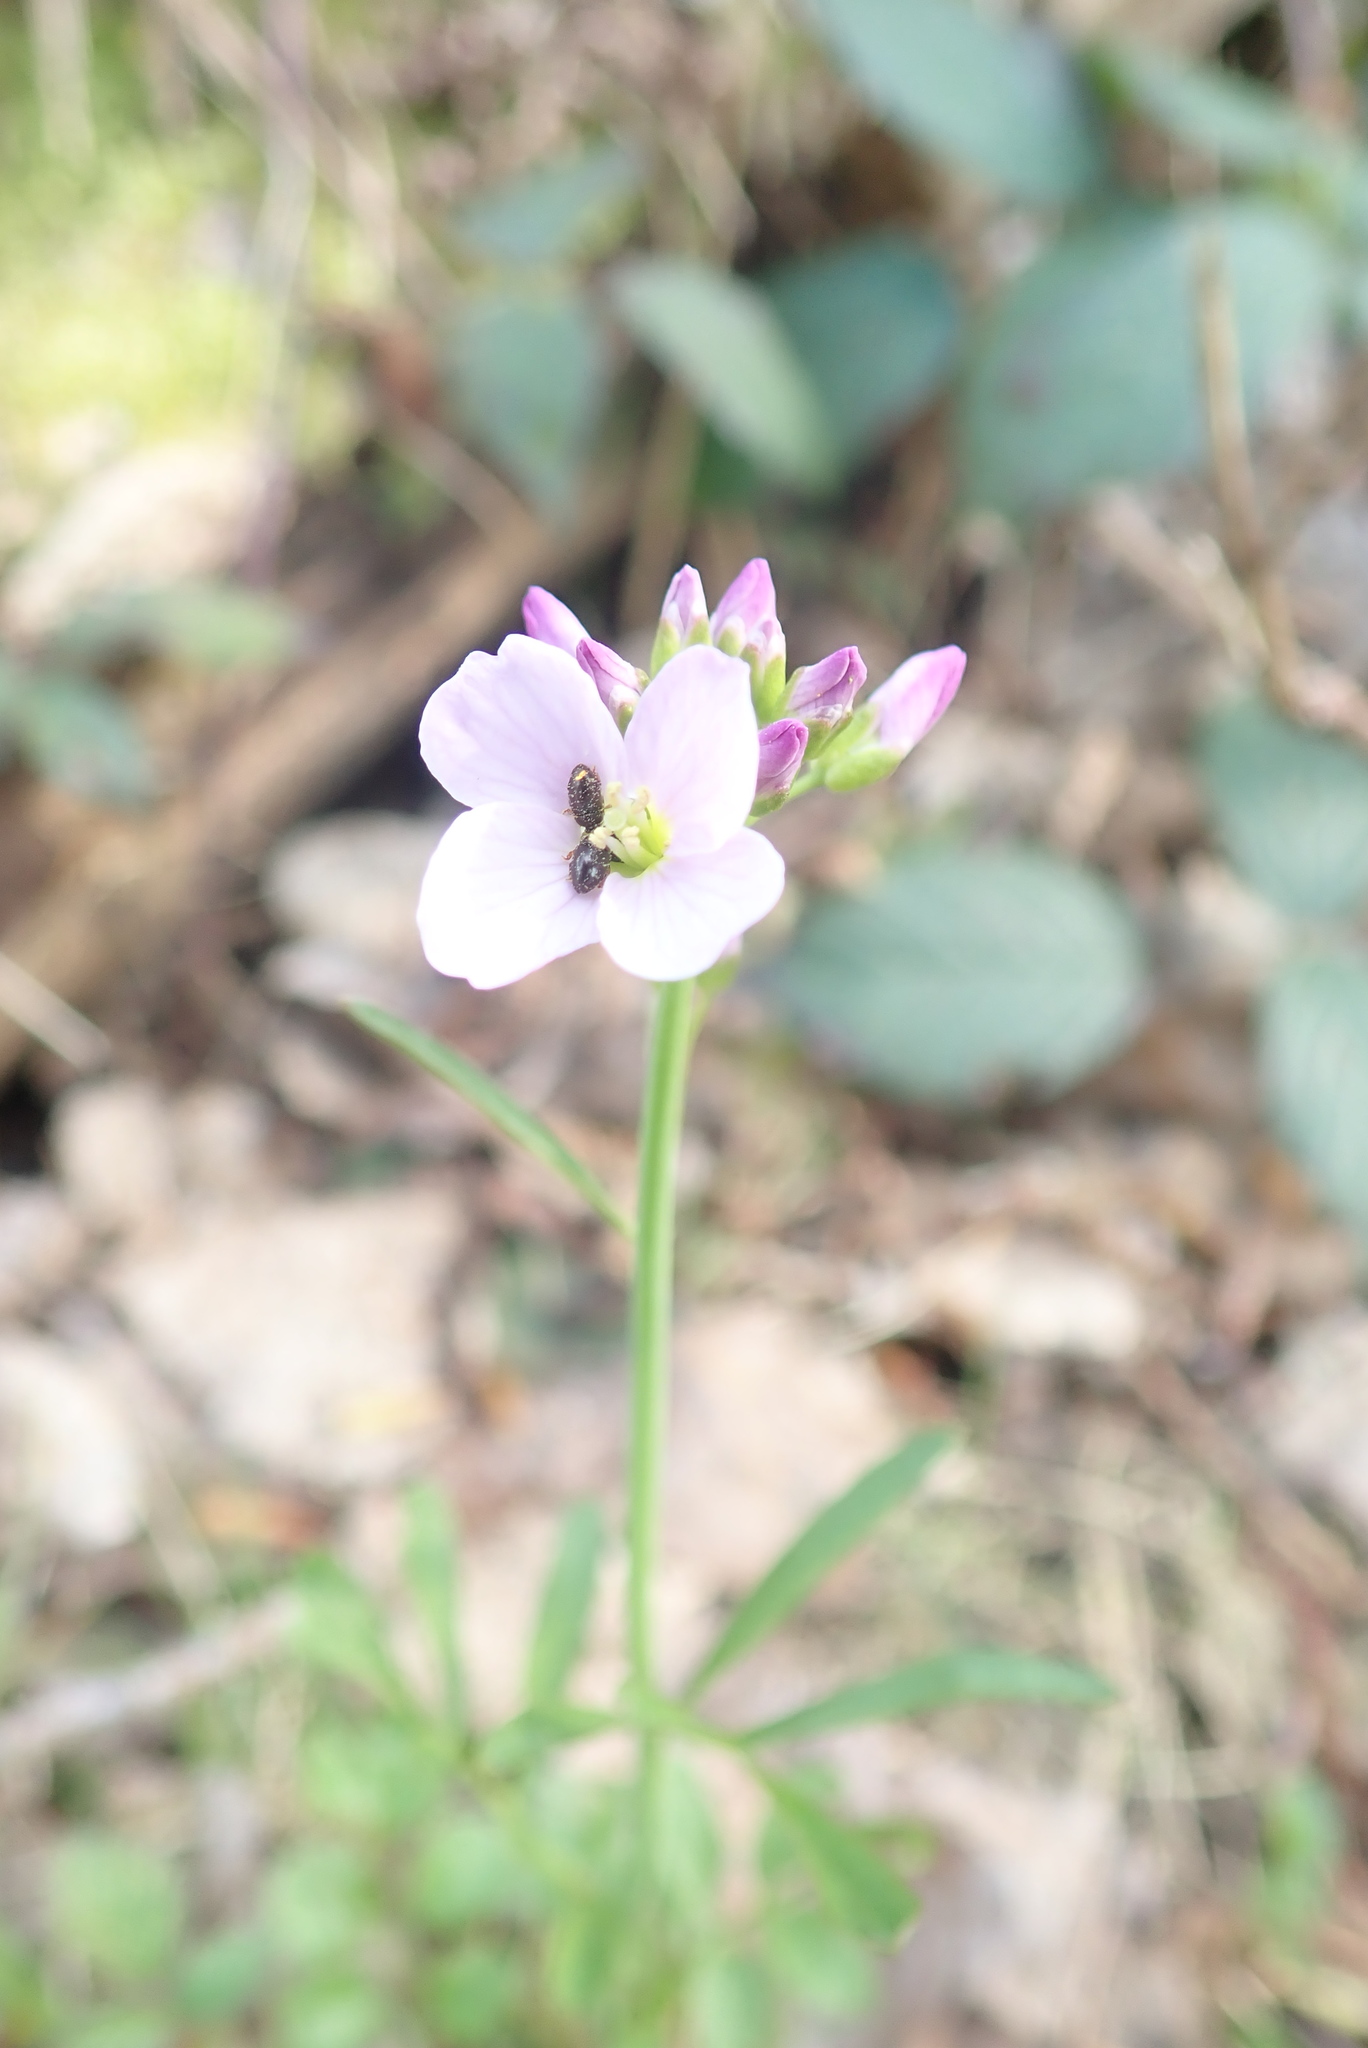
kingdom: Plantae
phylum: Tracheophyta
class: Magnoliopsida
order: Brassicales
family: Brassicaceae
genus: Cardamine
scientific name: Cardamine pratensis
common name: Cuckoo flower
